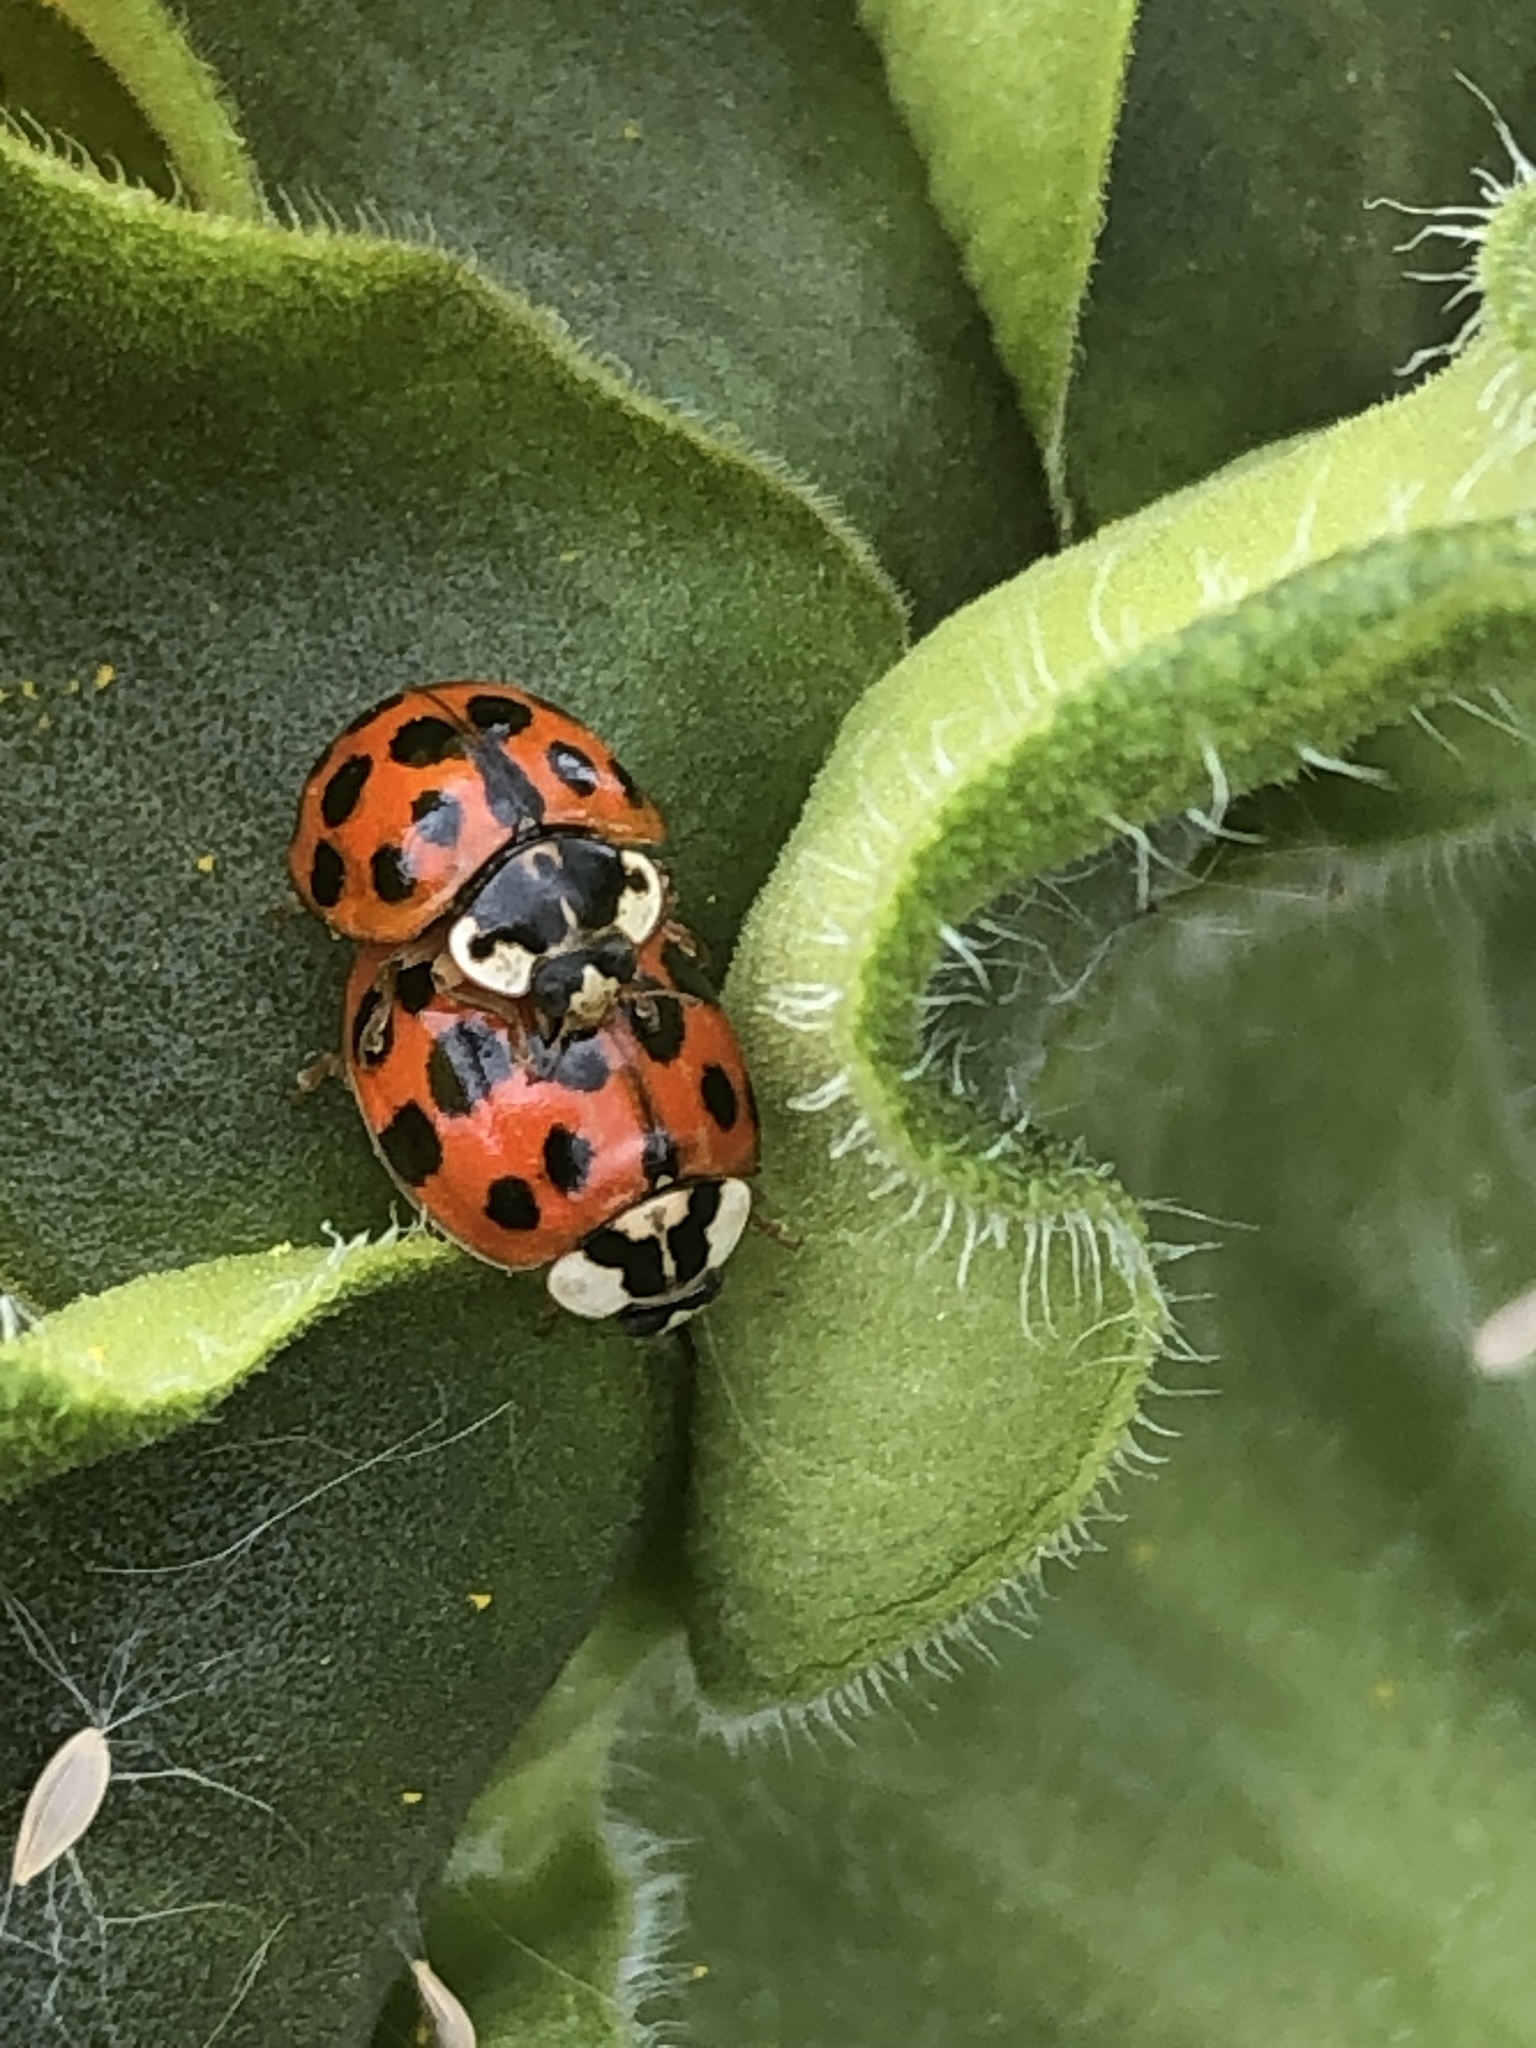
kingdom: Animalia
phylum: Arthropoda
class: Insecta
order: Coleoptera
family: Coccinellidae
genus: Harmonia
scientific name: Harmonia axyridis
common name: Harlequin ladybird
